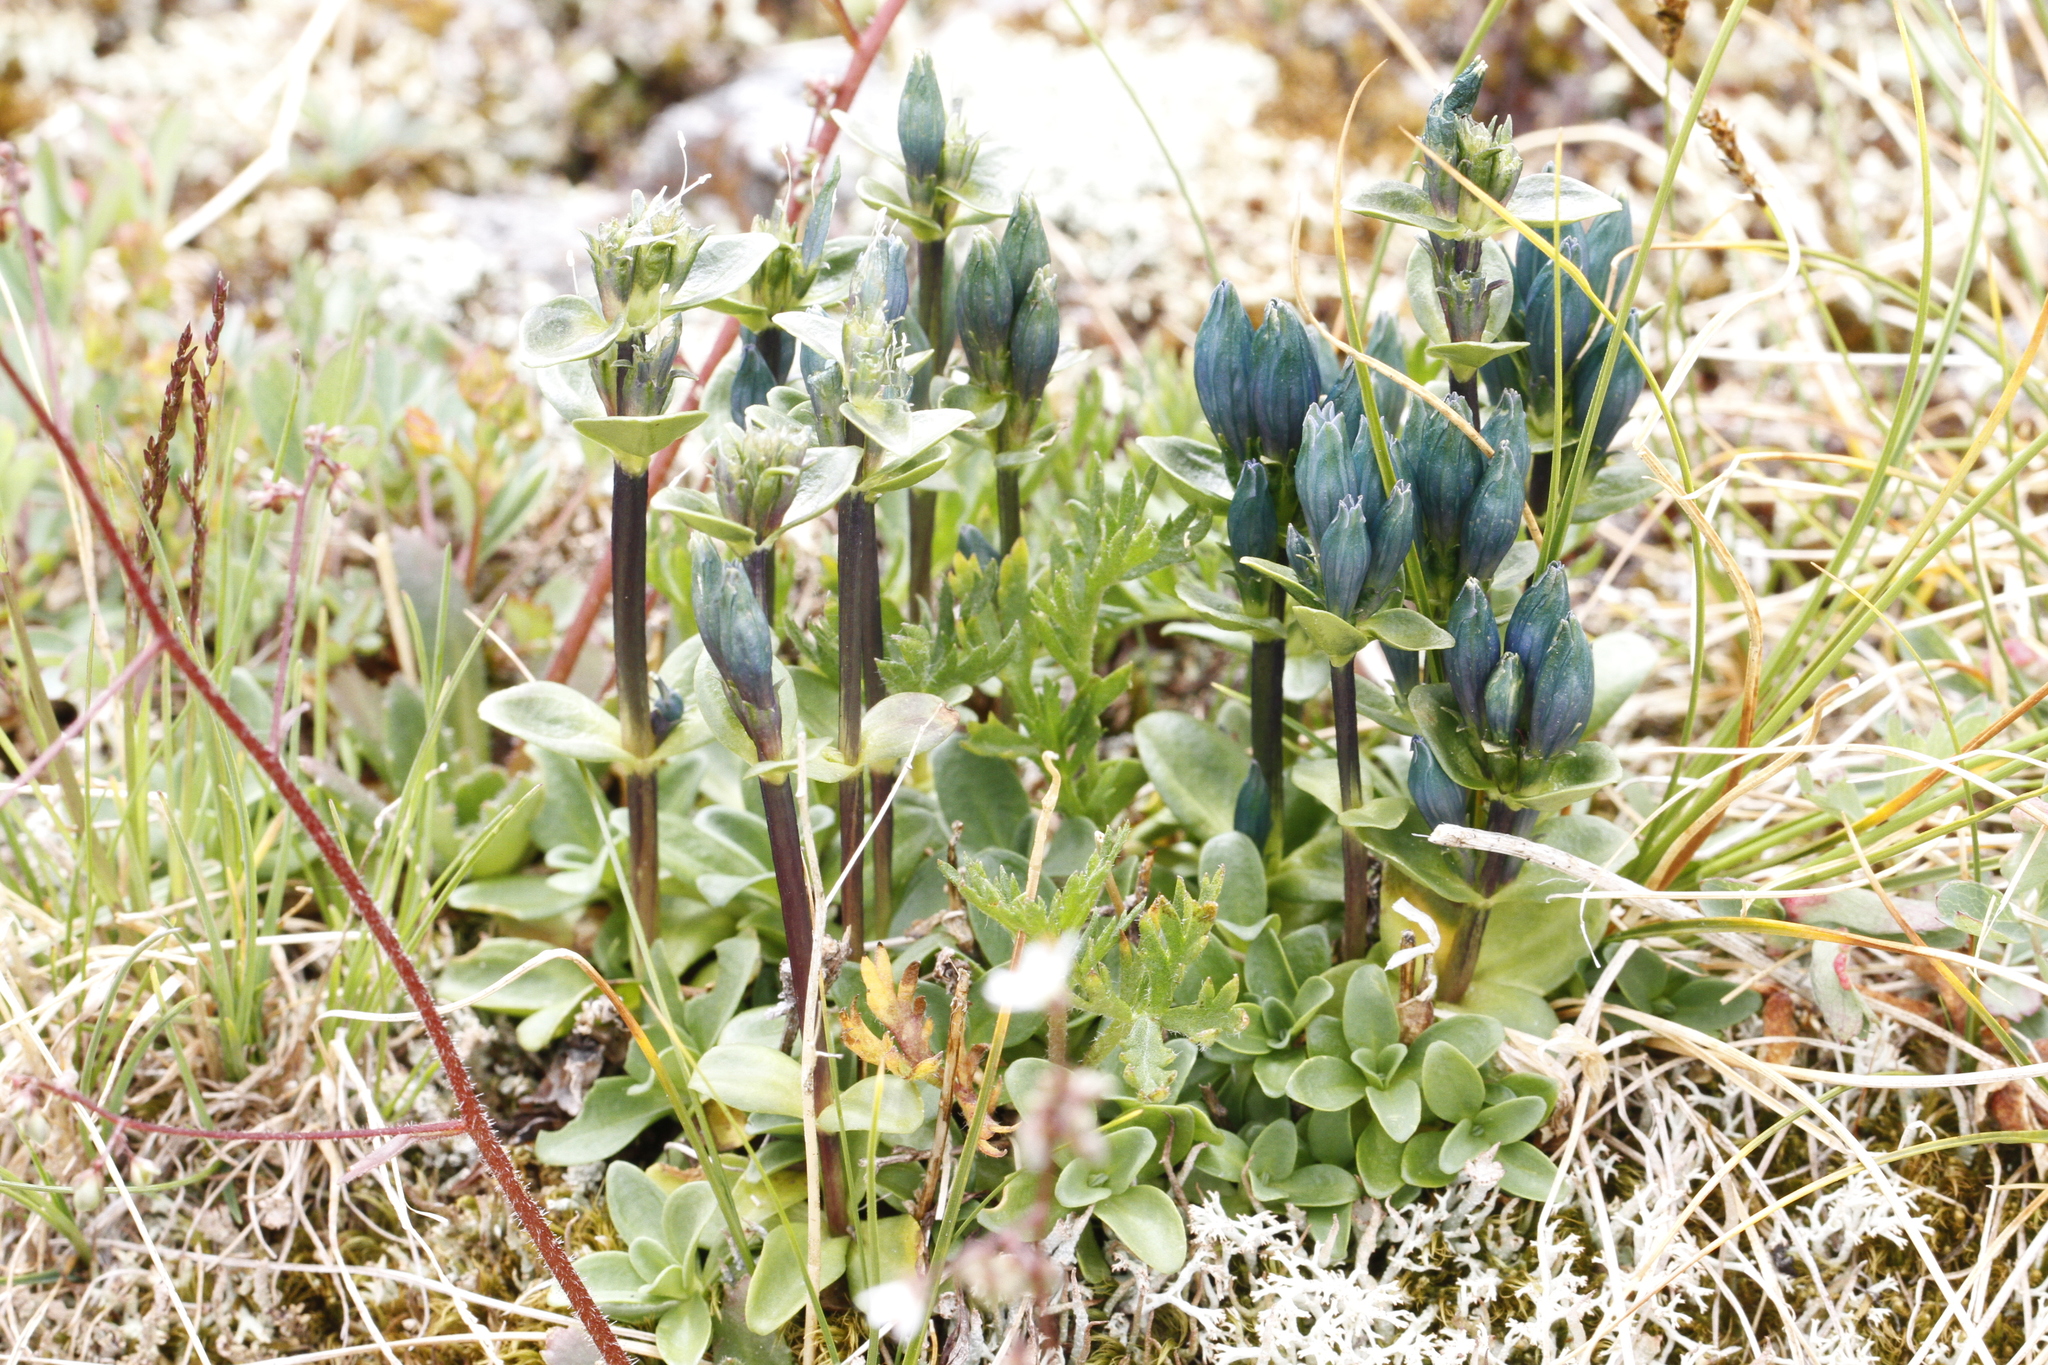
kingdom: Plantae
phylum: Tracheophyta
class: Magnoliopsida
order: Gentianales
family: Gentianaceae
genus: Gentiana
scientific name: Gentiana glauca
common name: Alpine gentian
